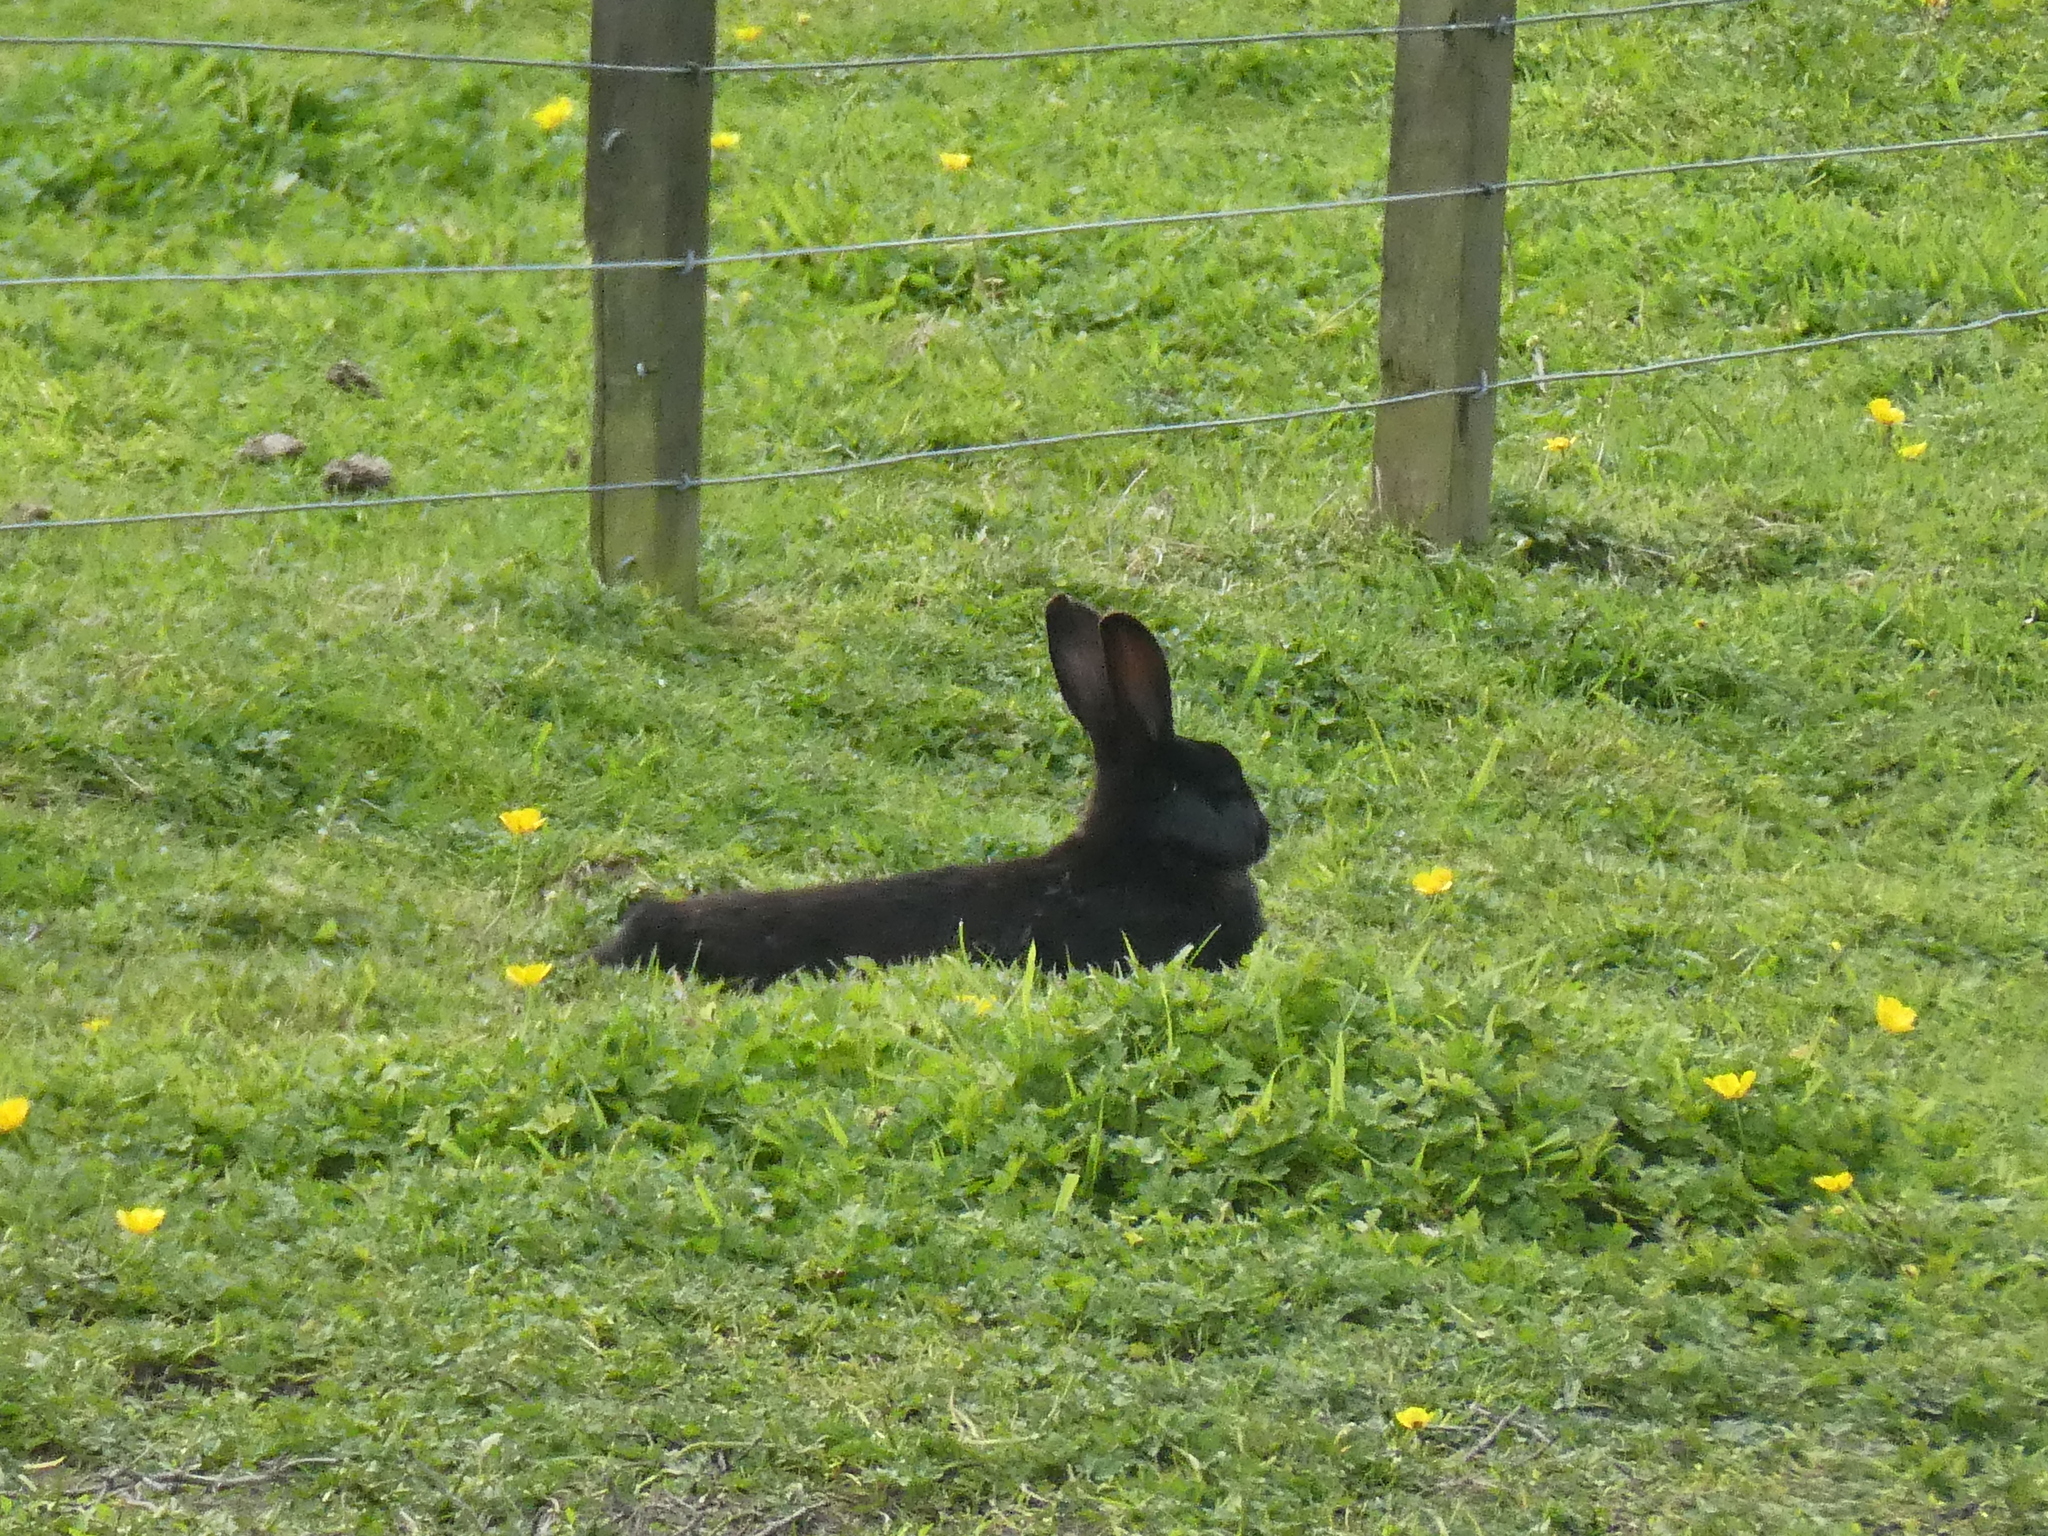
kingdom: Animalia
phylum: Chordata
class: Mammalia
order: Lagomorpha
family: Leporidae
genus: Oryctolagus
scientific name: Oryctolagus cuniculus
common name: European rabbit
